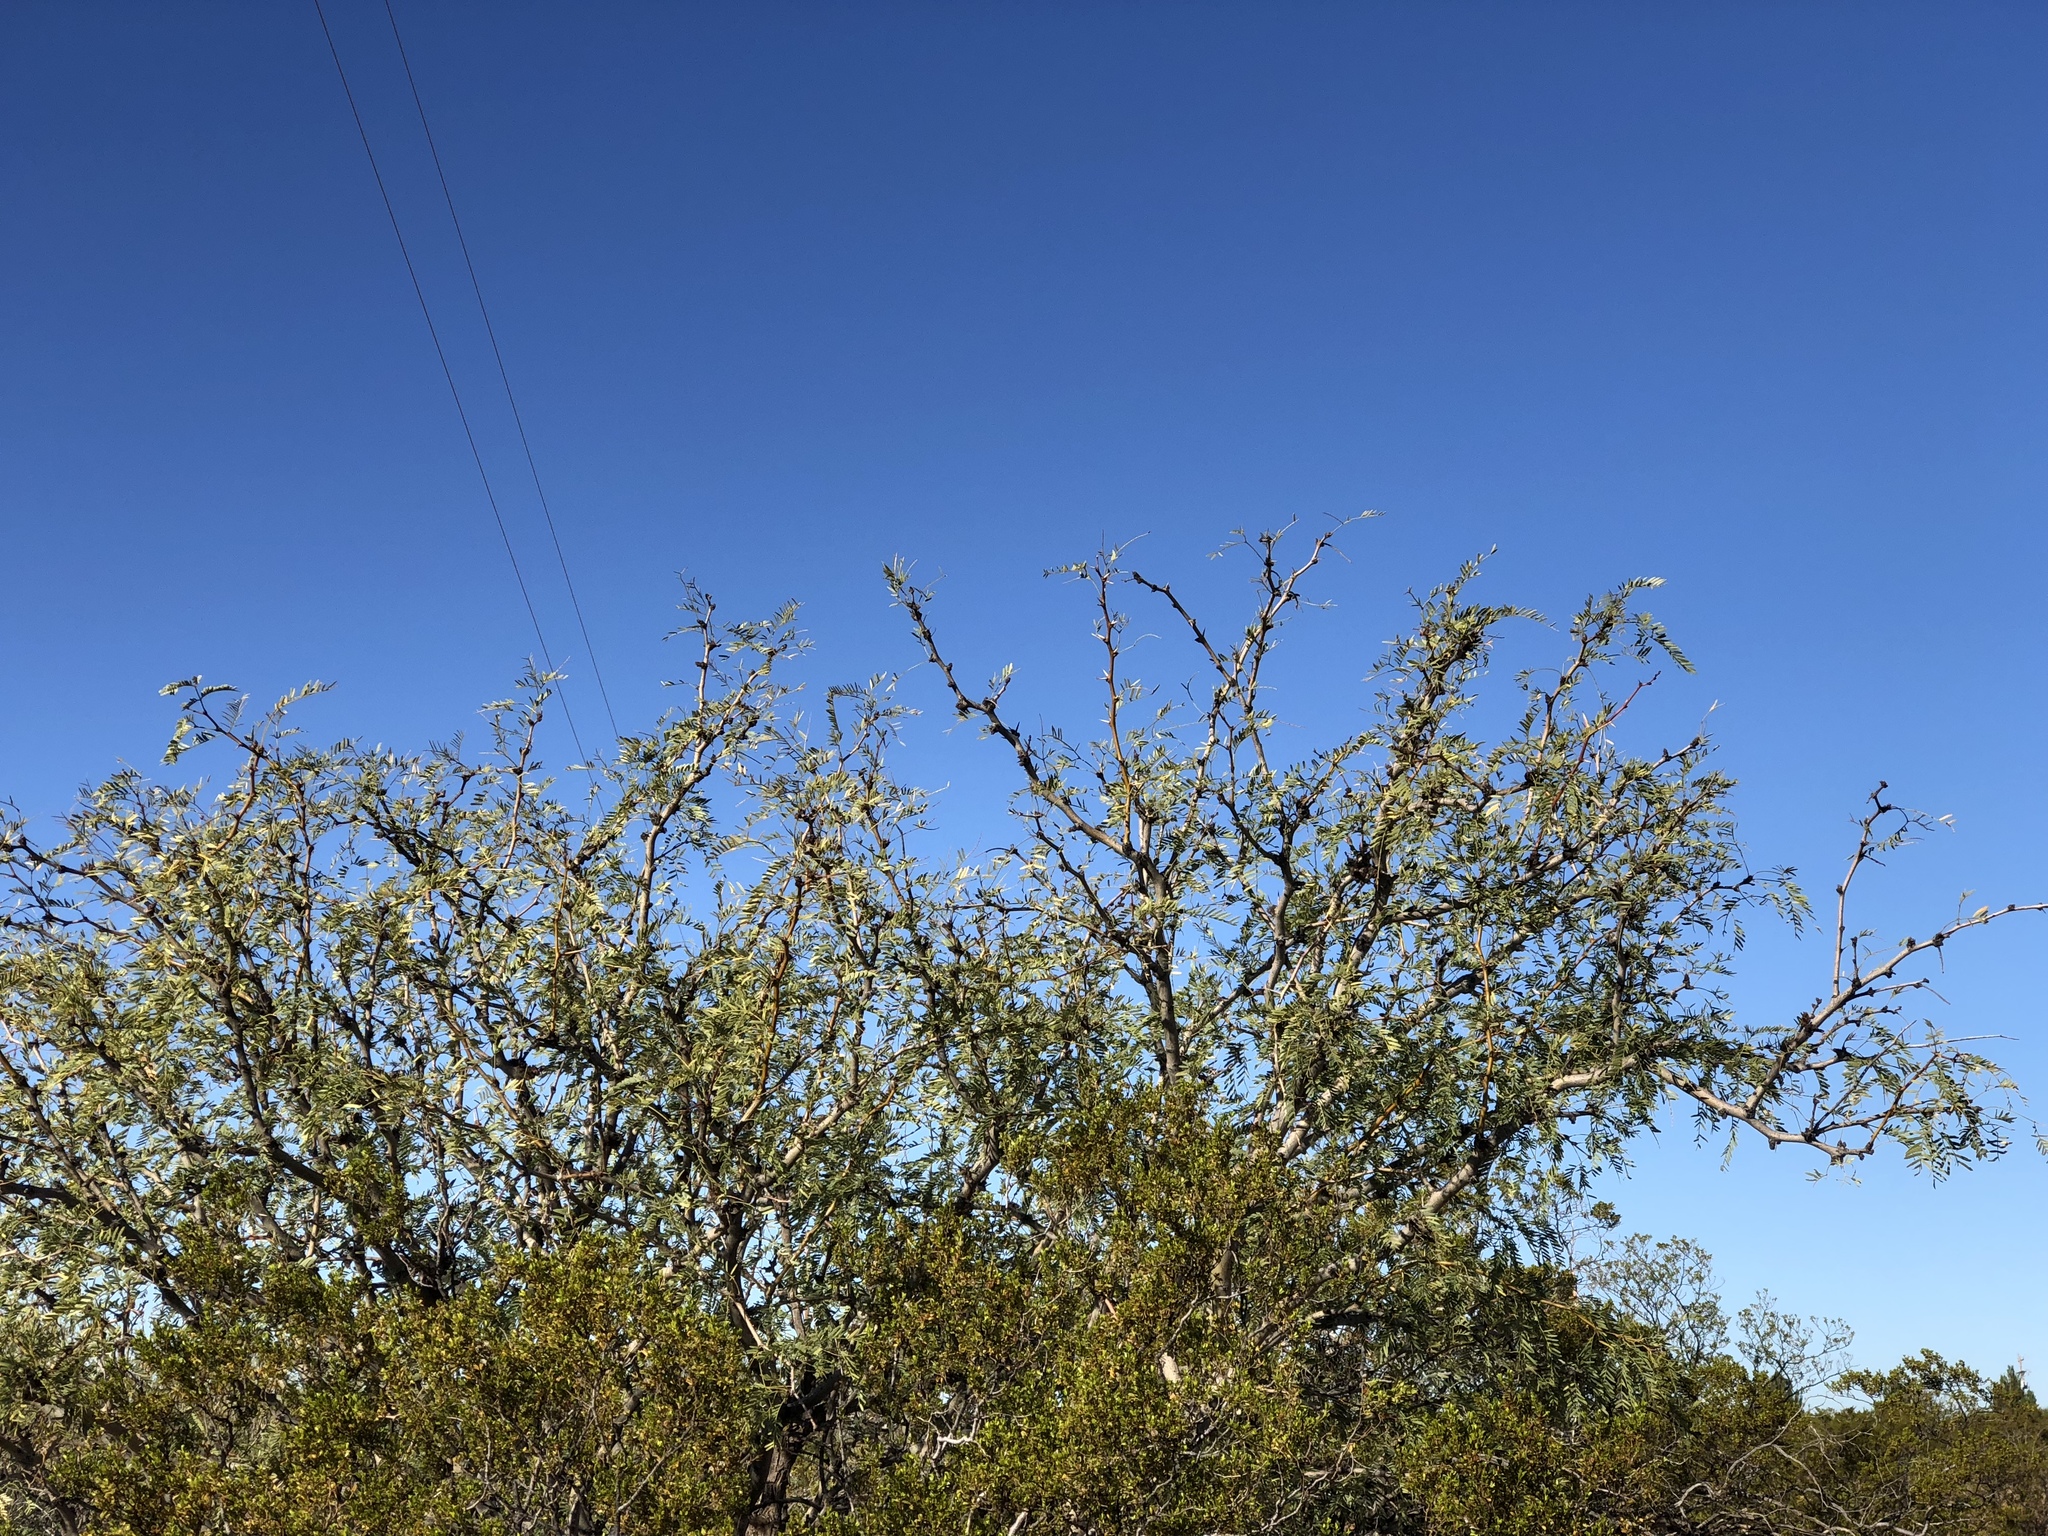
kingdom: Plantae
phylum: Tracheophyta
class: Magnoliopsida
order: Fabales
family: Fabaceae
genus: Prosopis
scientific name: Prosopis glandulosa
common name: Honey mesquite
